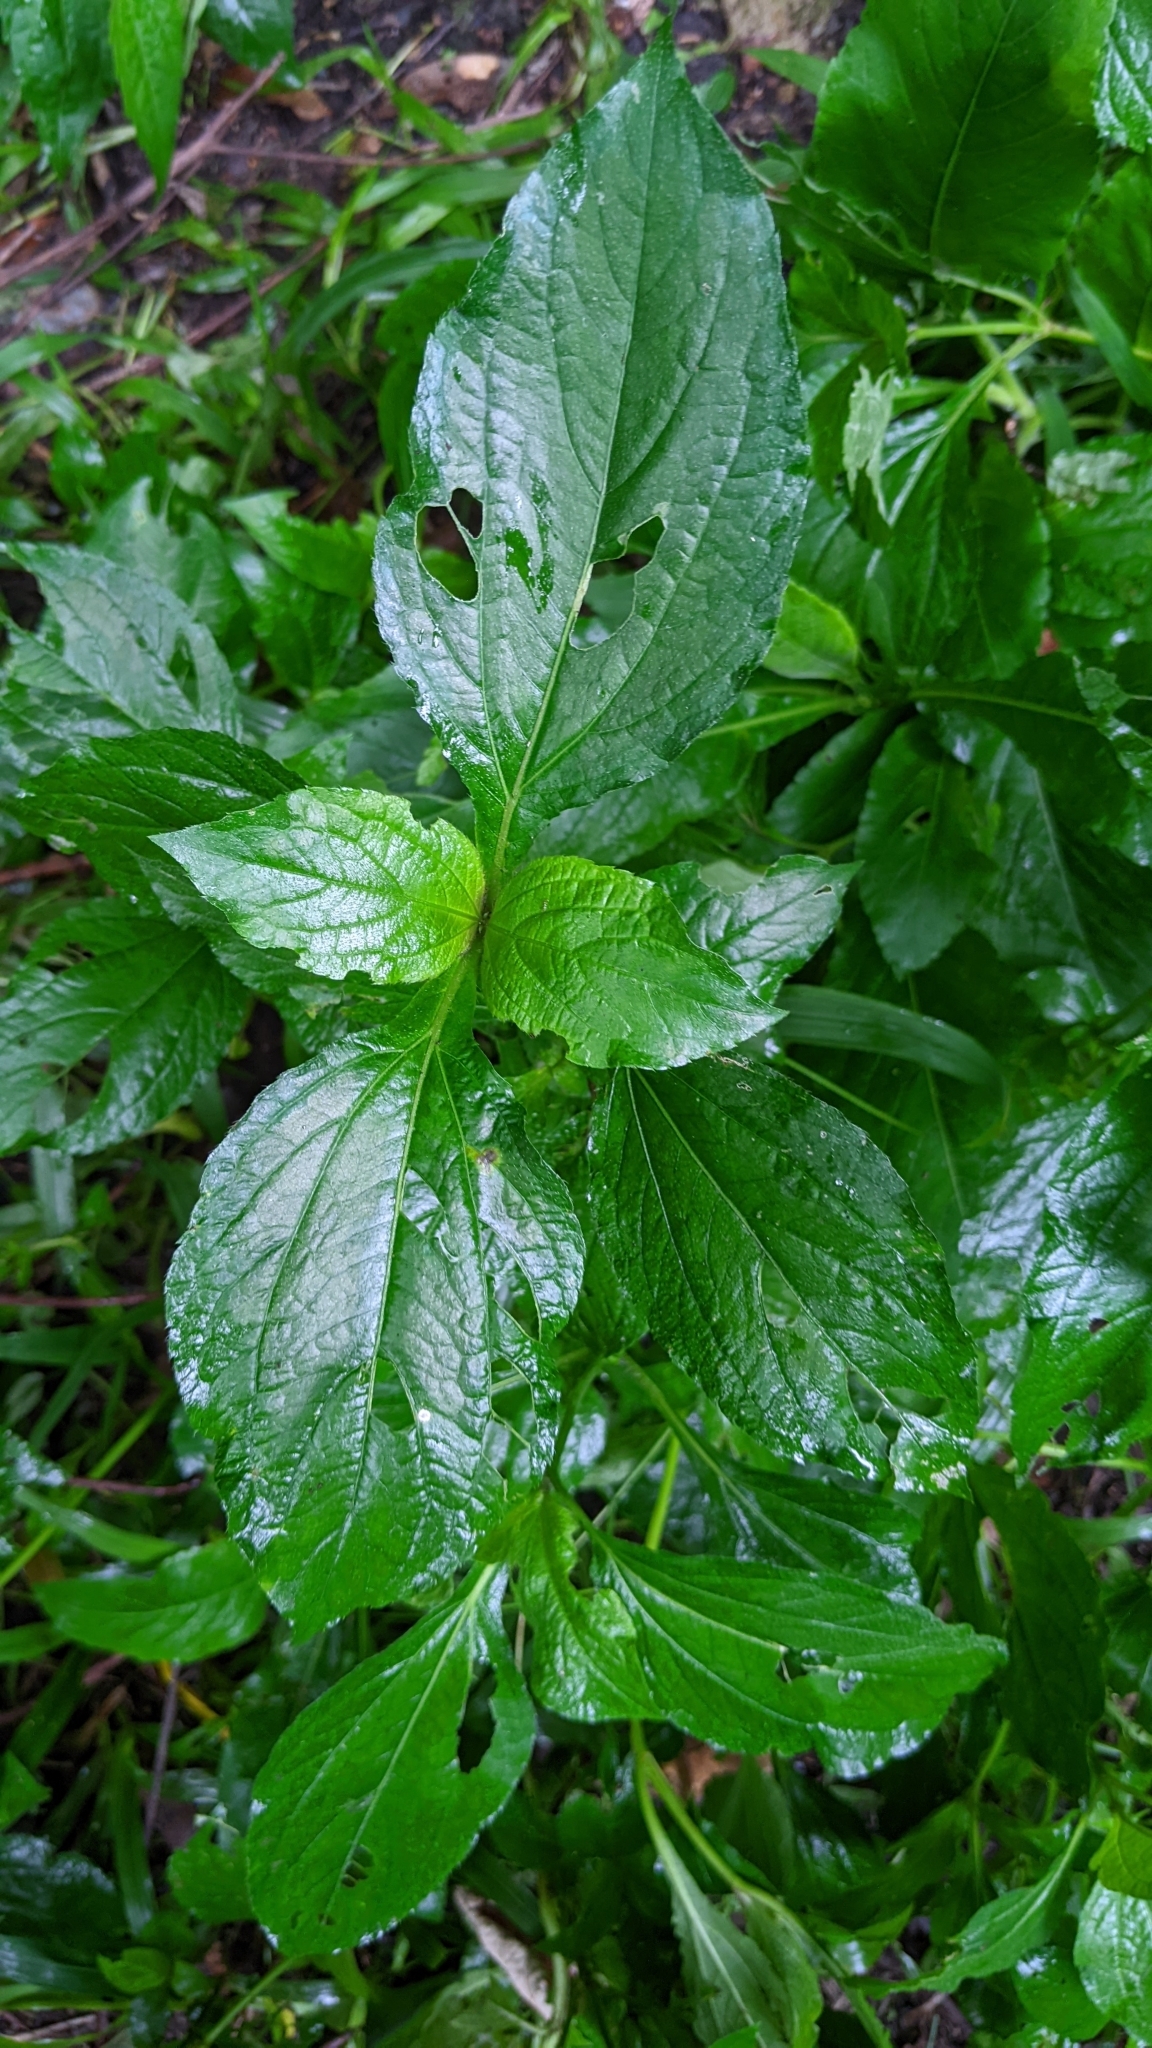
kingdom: Plantae
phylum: Tracheophyta
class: Magnoliopsida
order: Asterales
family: Asteraceae
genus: Adenostemma
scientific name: Adenostemma lavenia
